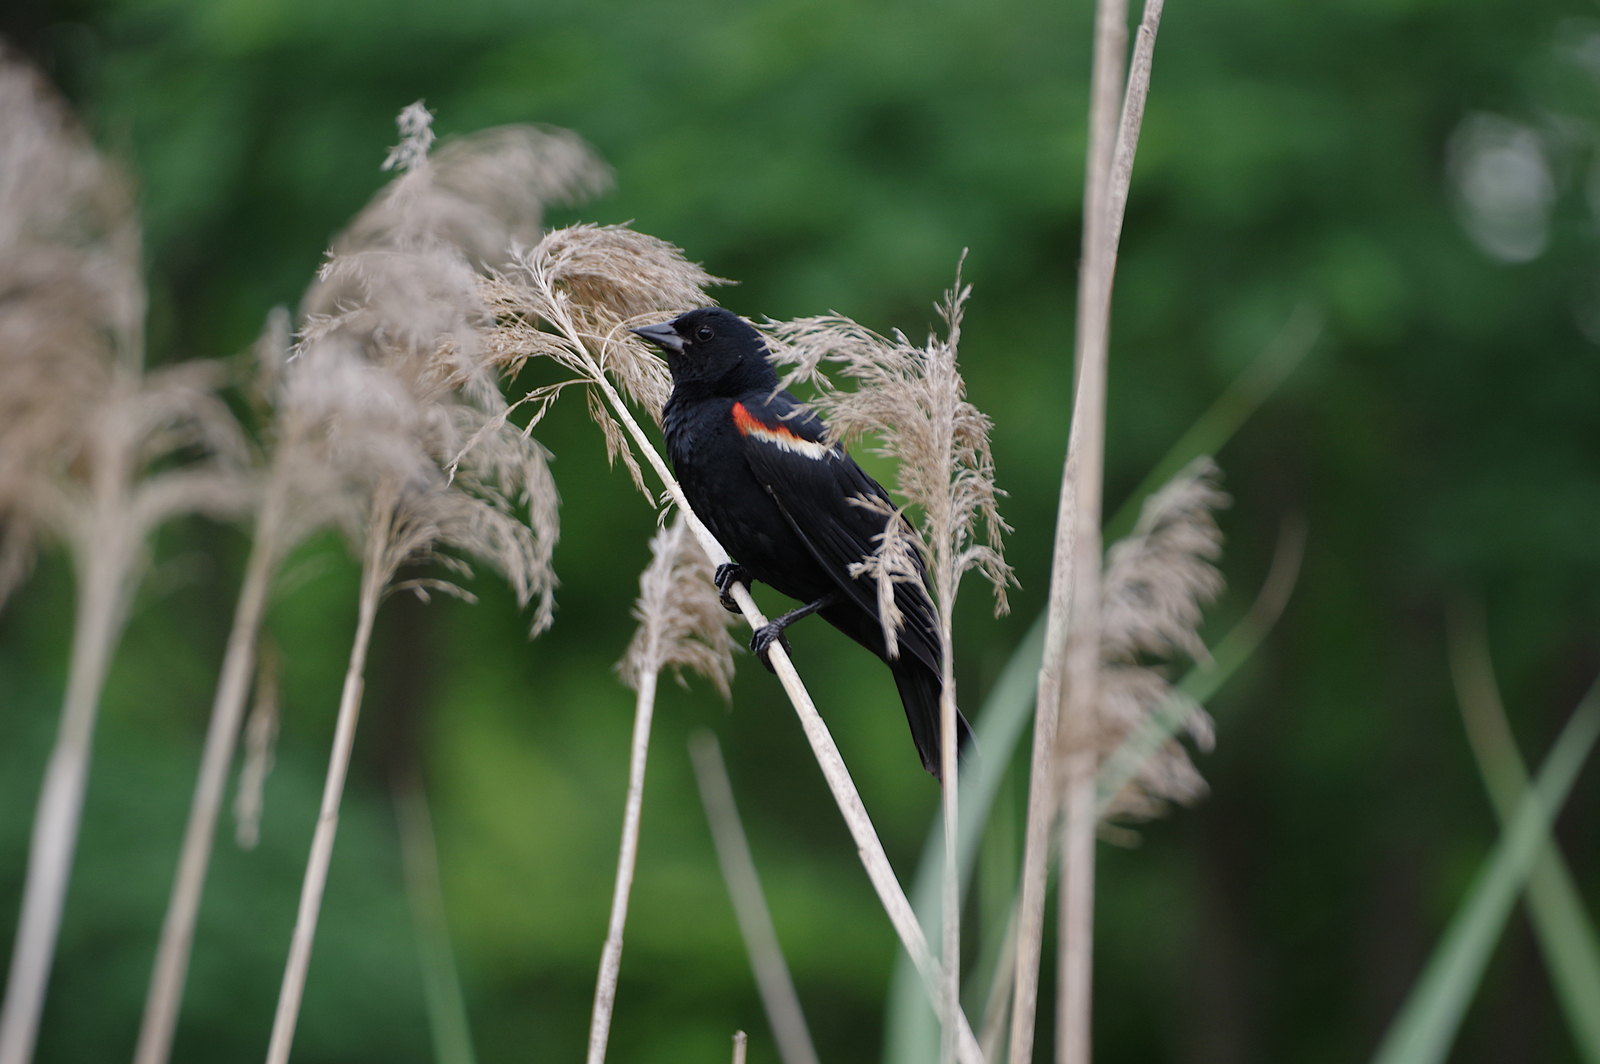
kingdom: Animalia
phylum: Chordata
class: Aves
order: Passeriformes
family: Icteridae
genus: Agelaius
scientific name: Agelaius phoeniceus
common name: Red-winged blackbird
